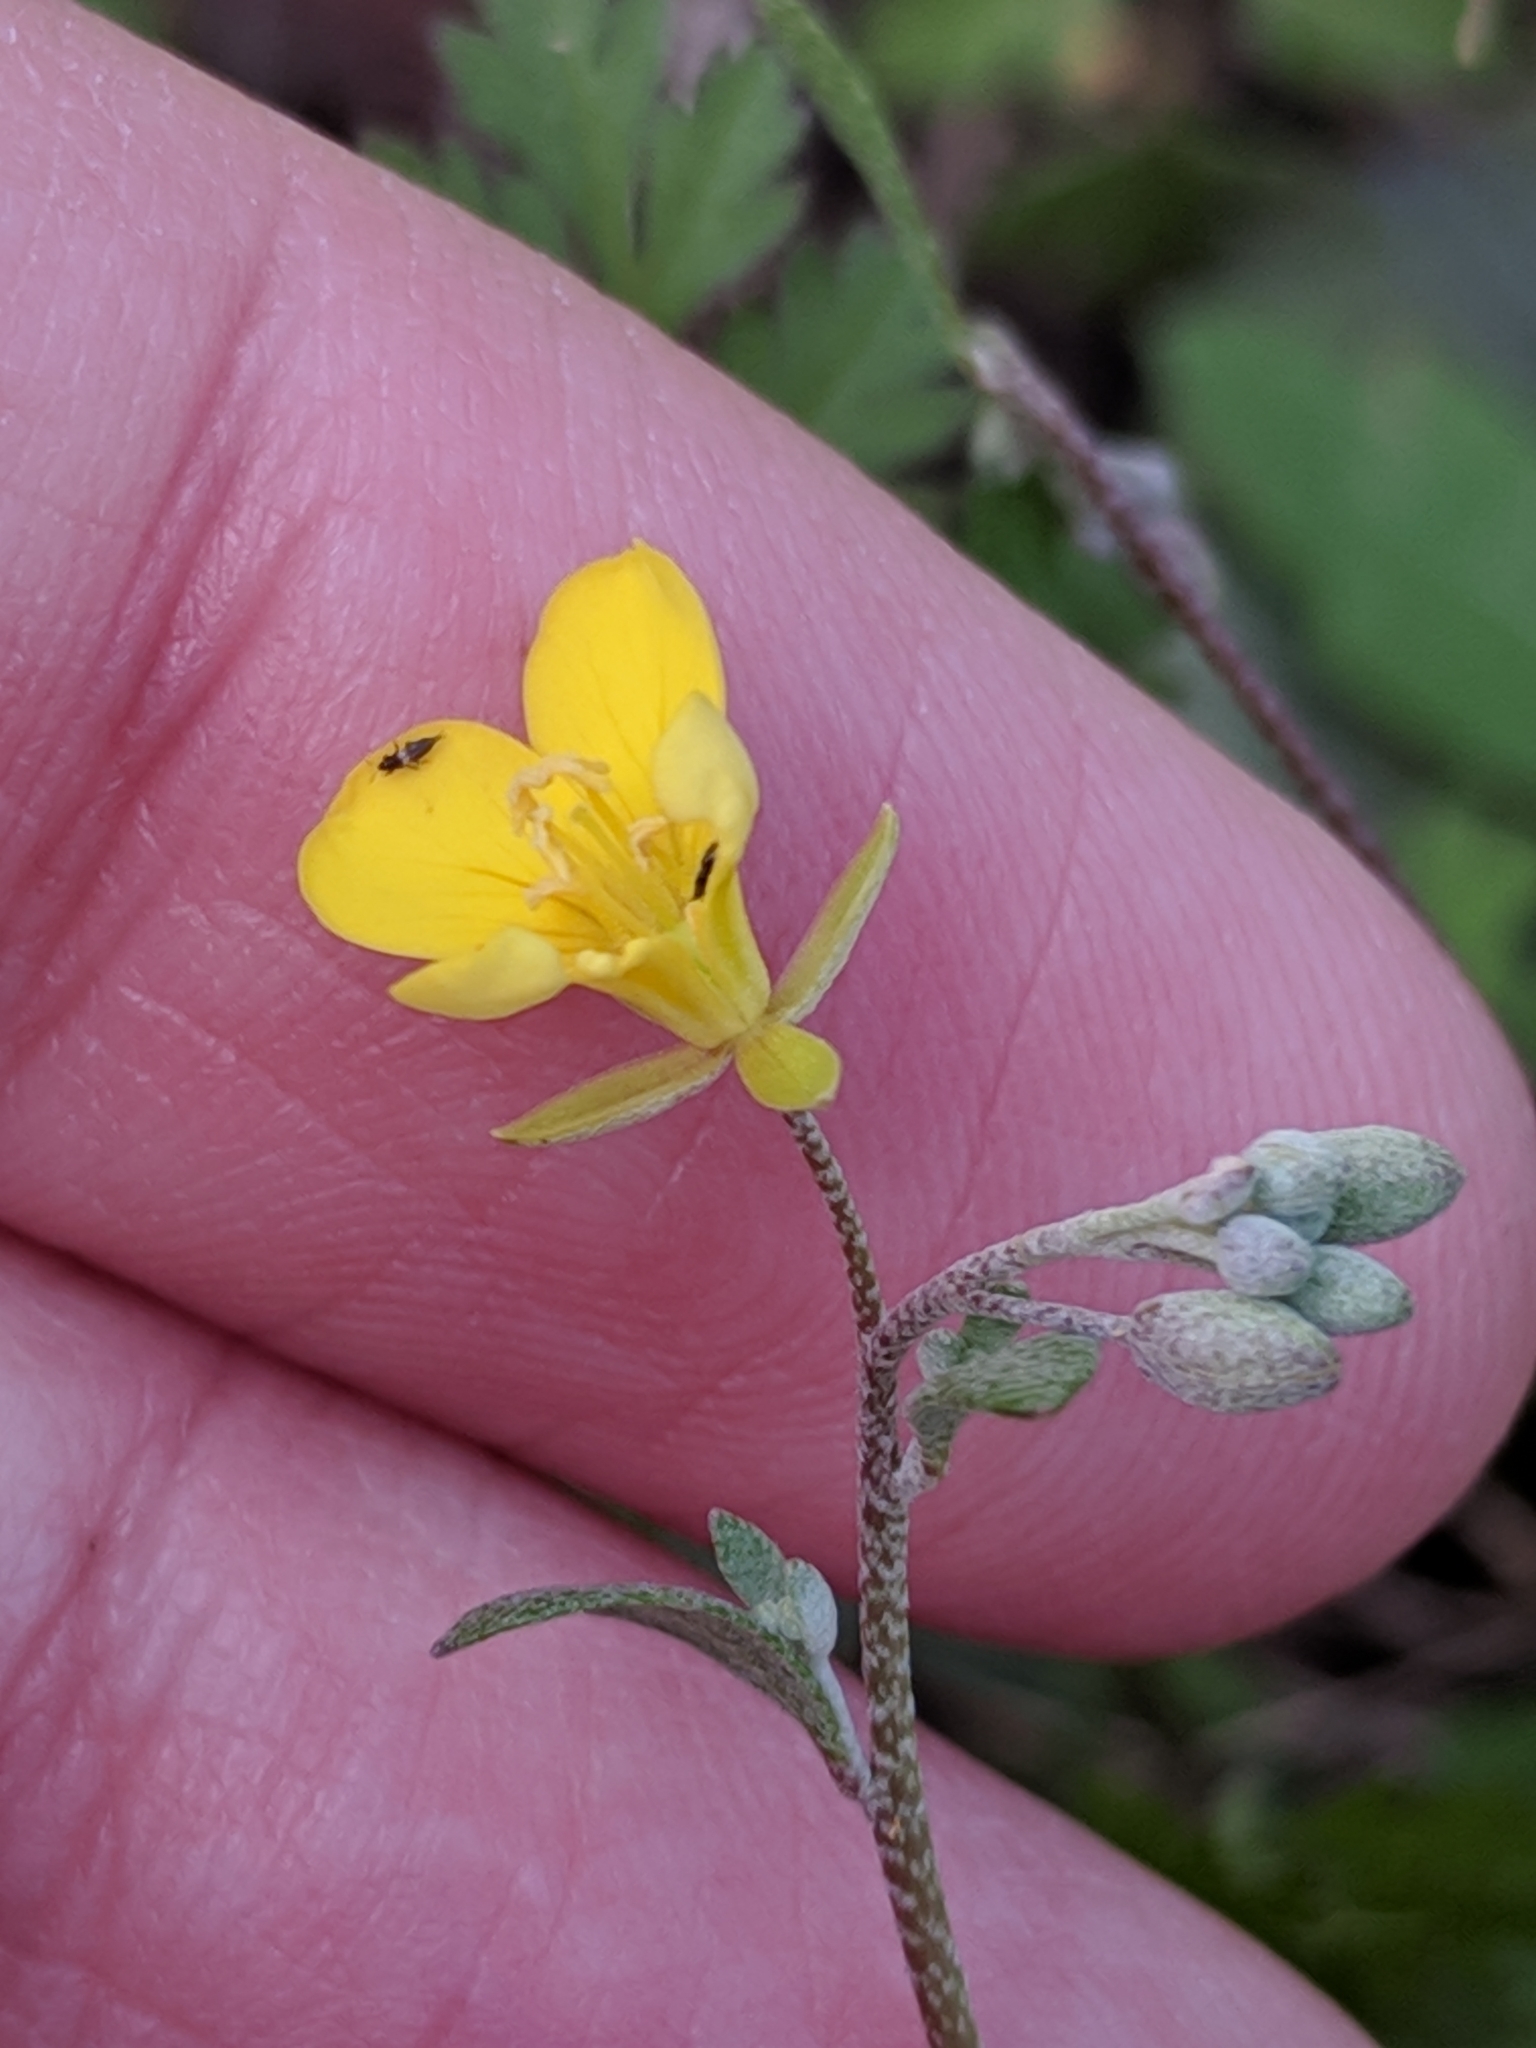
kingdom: Plantae
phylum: Tracheophyta
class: Magnoliopsida
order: Brassicales
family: Brassicaceae
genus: Physaria
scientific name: Physaria recurvata
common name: Gaslight bladderpod
